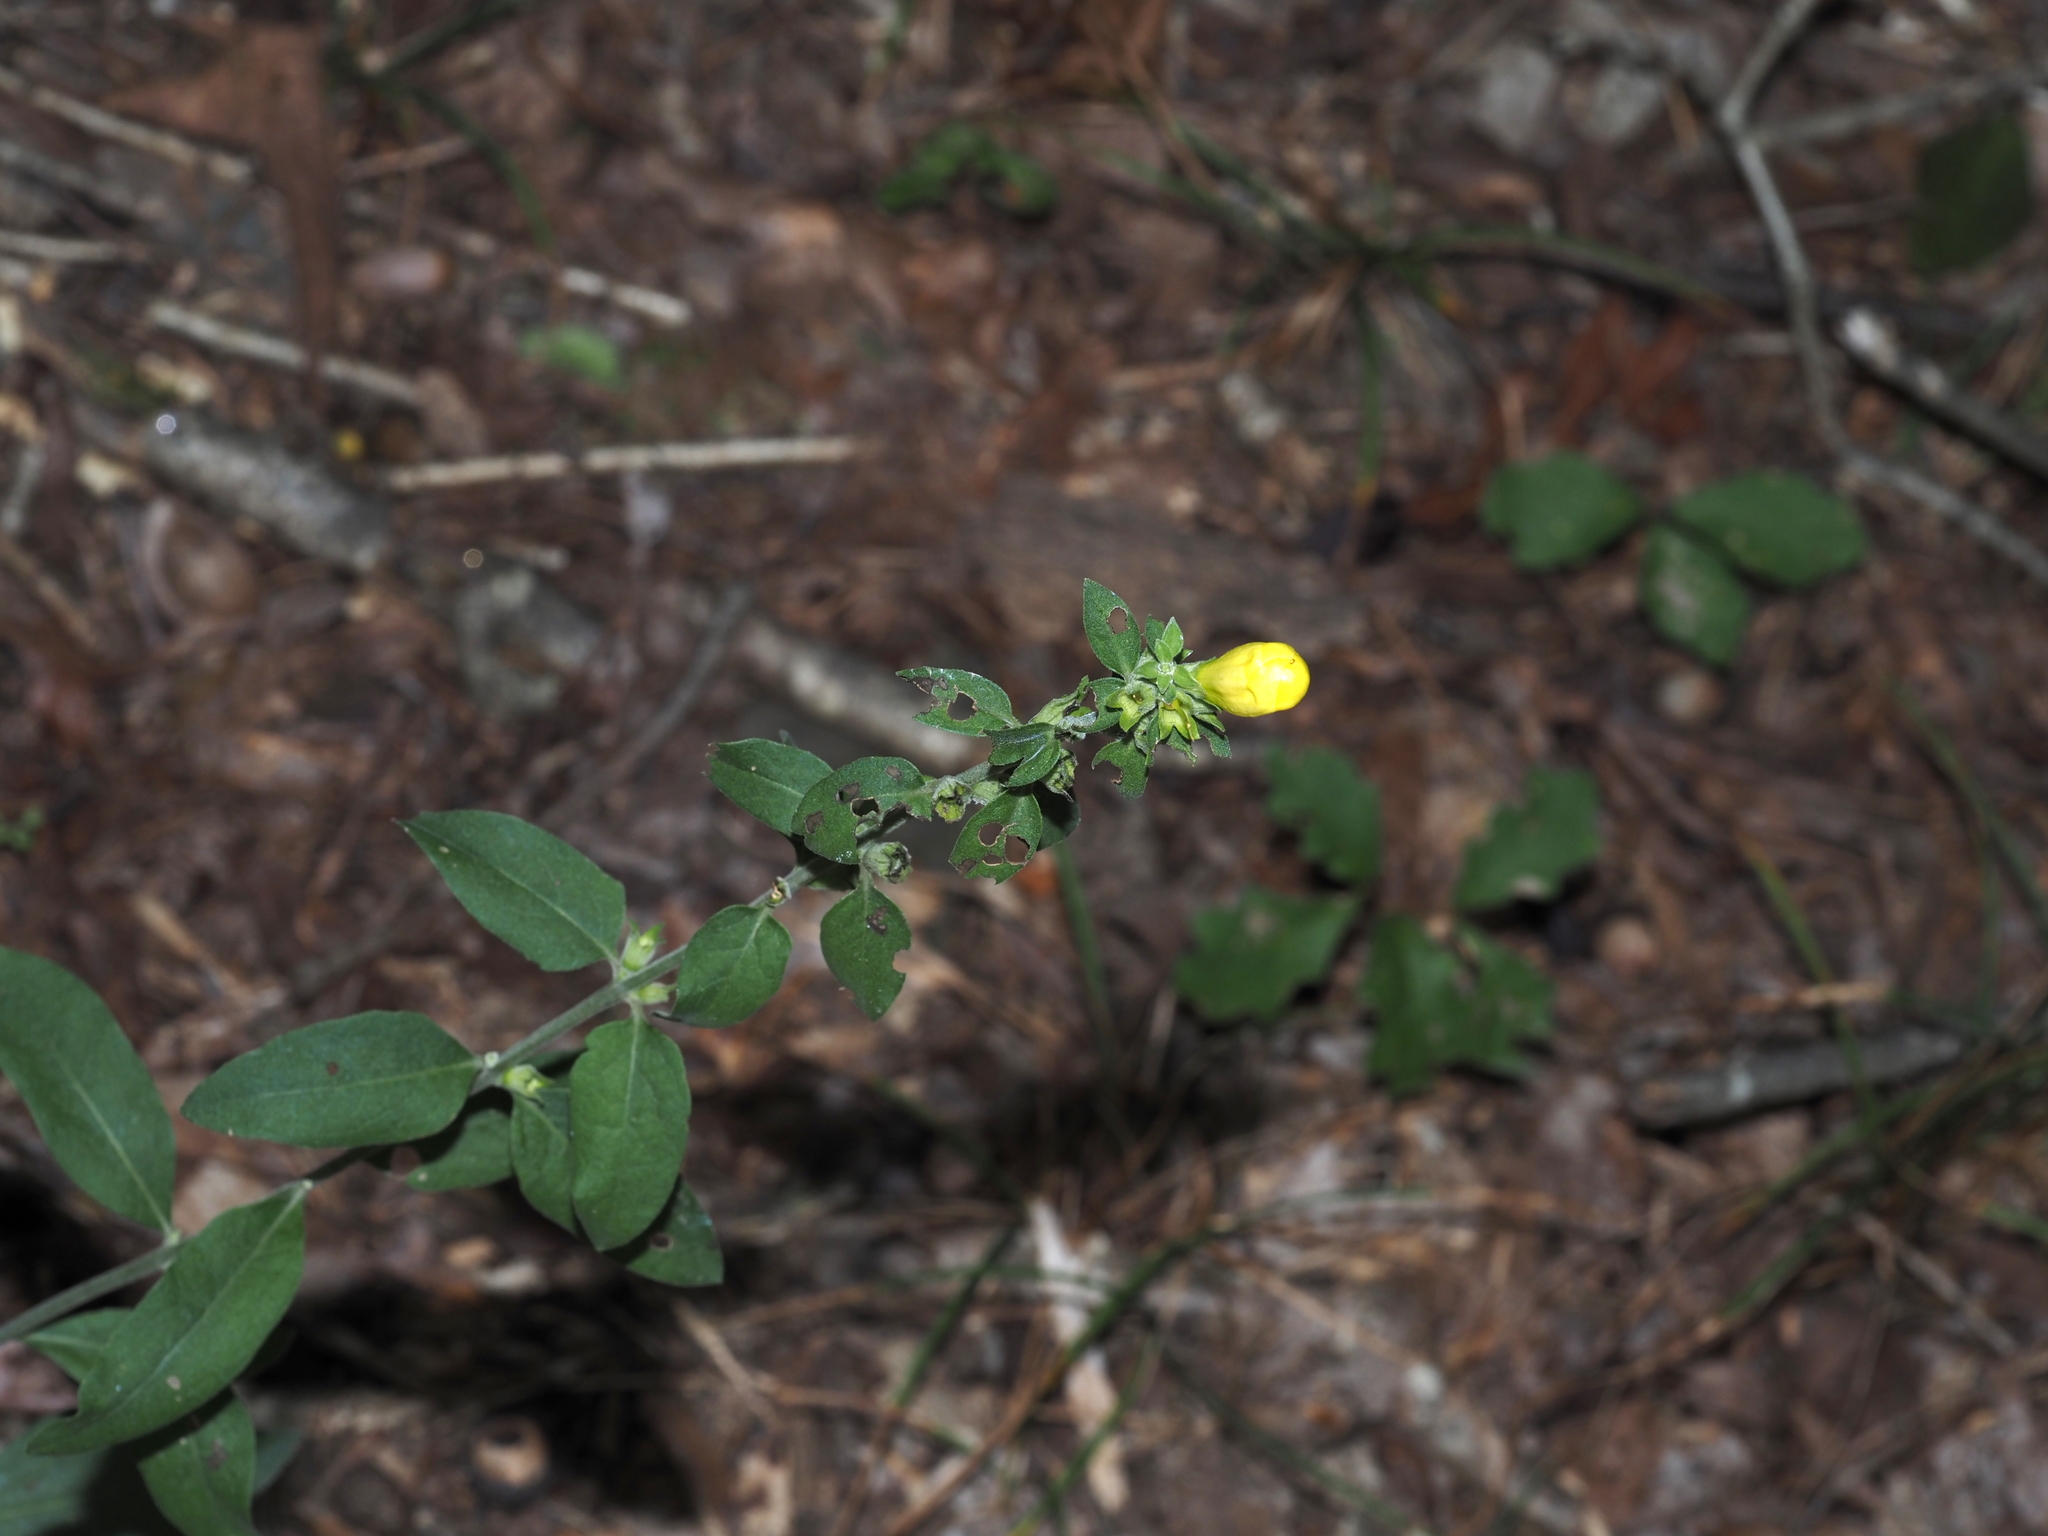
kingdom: Plantae
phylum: Tracheophyta
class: Magnoliopsida
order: Lamiales
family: Orobanchaceae
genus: Aureolaria
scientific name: Aureolaria virginica
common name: Downy false foxglove
